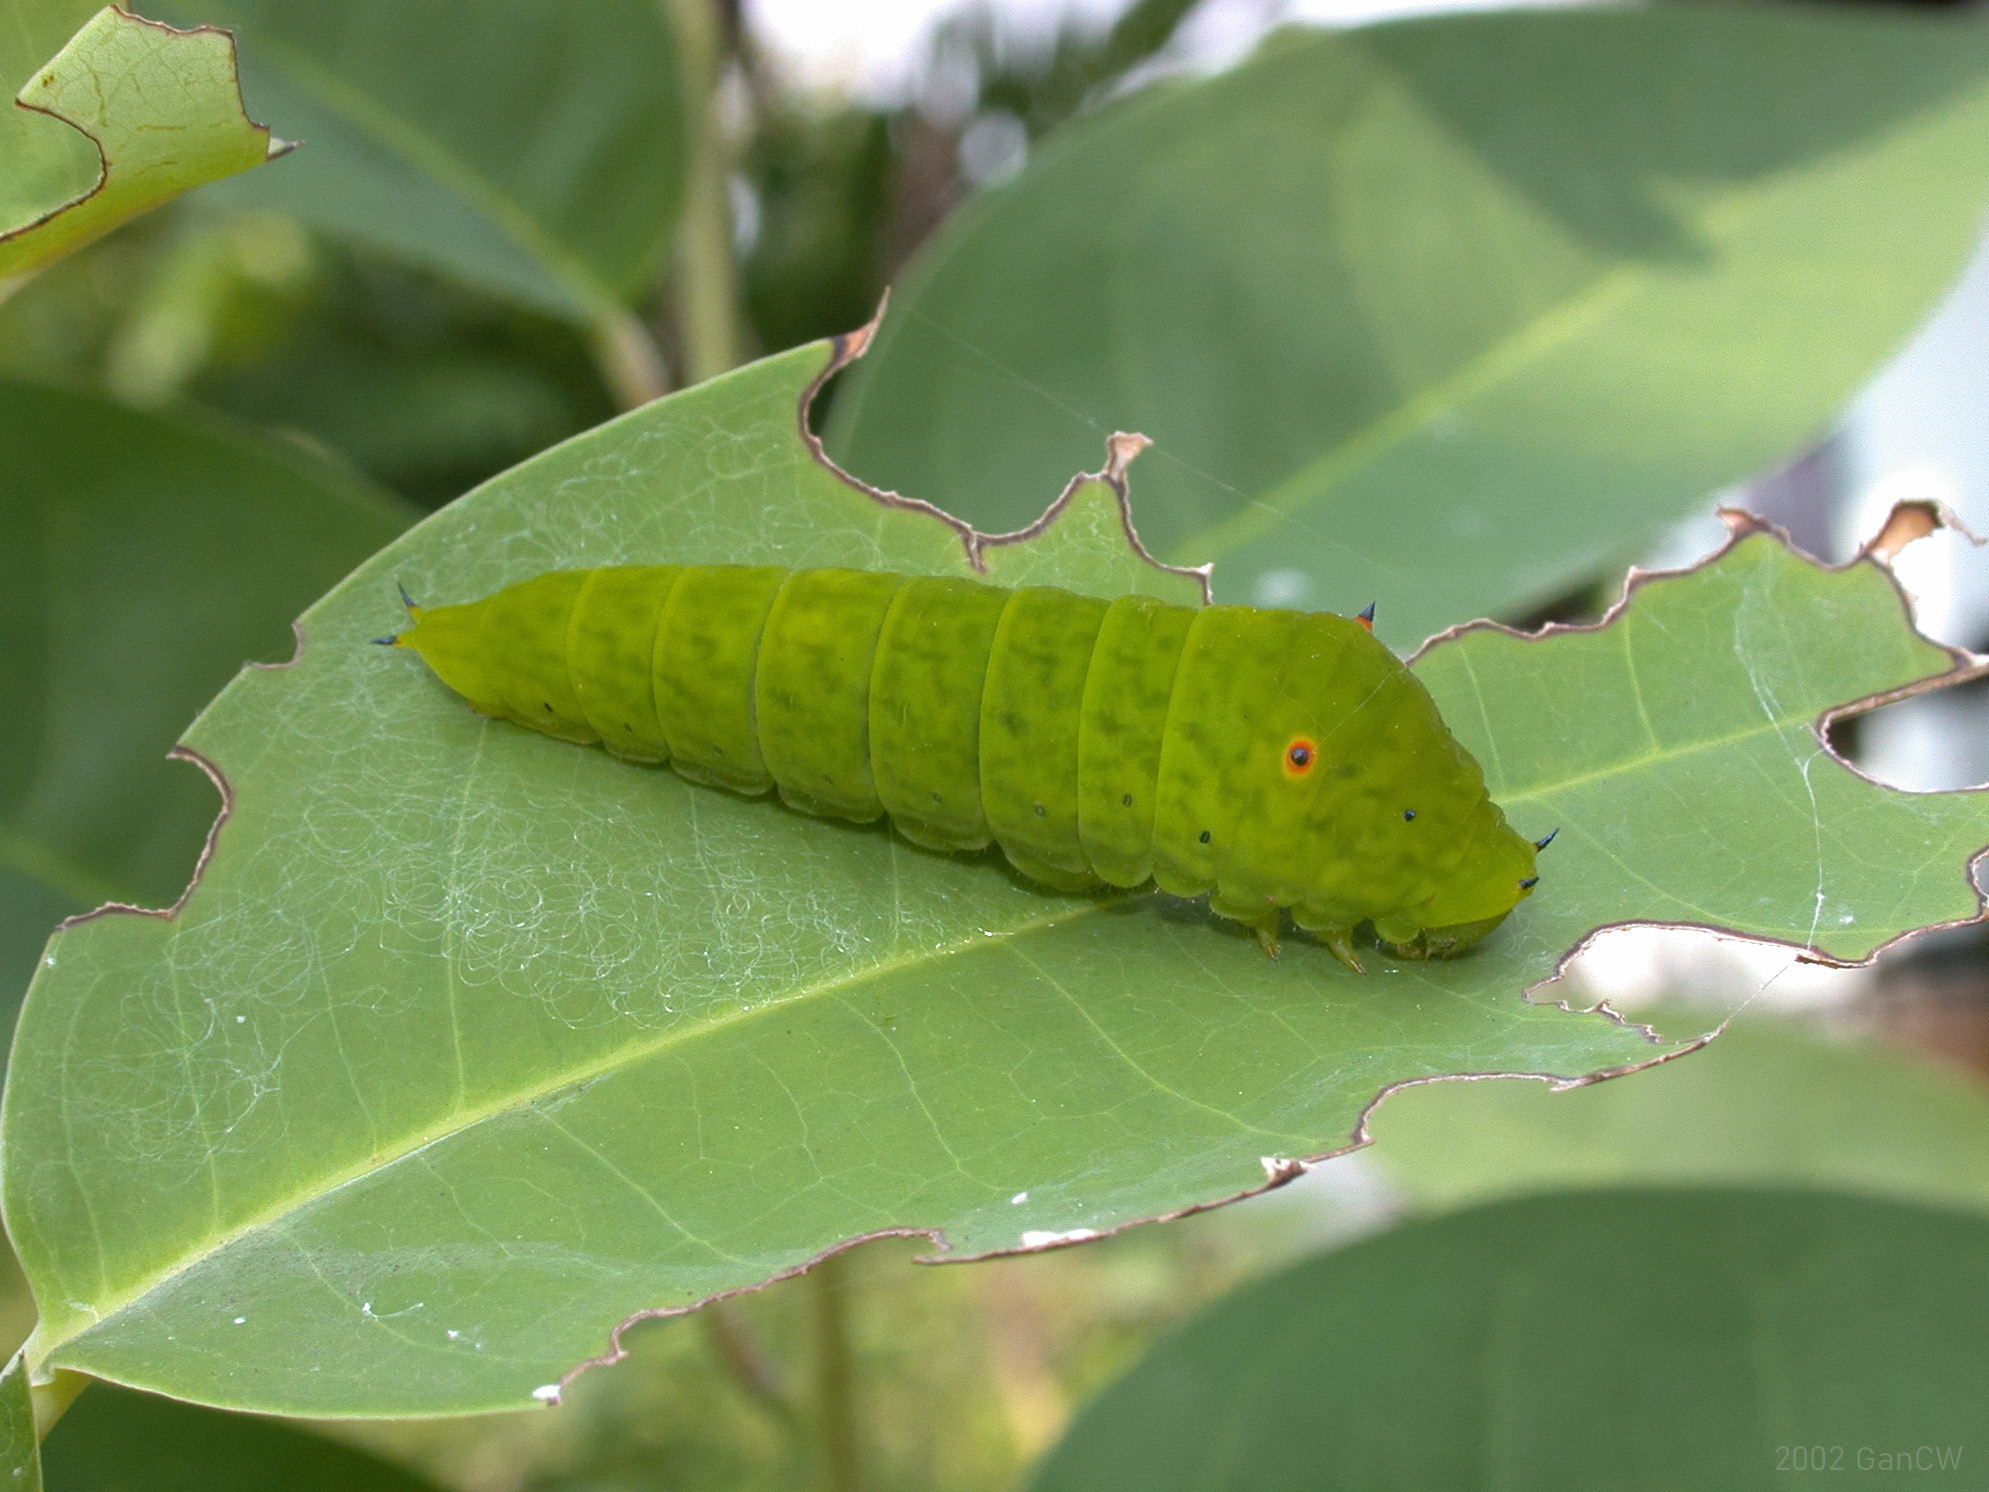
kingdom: Animalia
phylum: Arthropoda
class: Insecta
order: Lepidoptera
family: Papilionidae
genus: Graphium
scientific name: Graphium agamemnon
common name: Tailed jay
